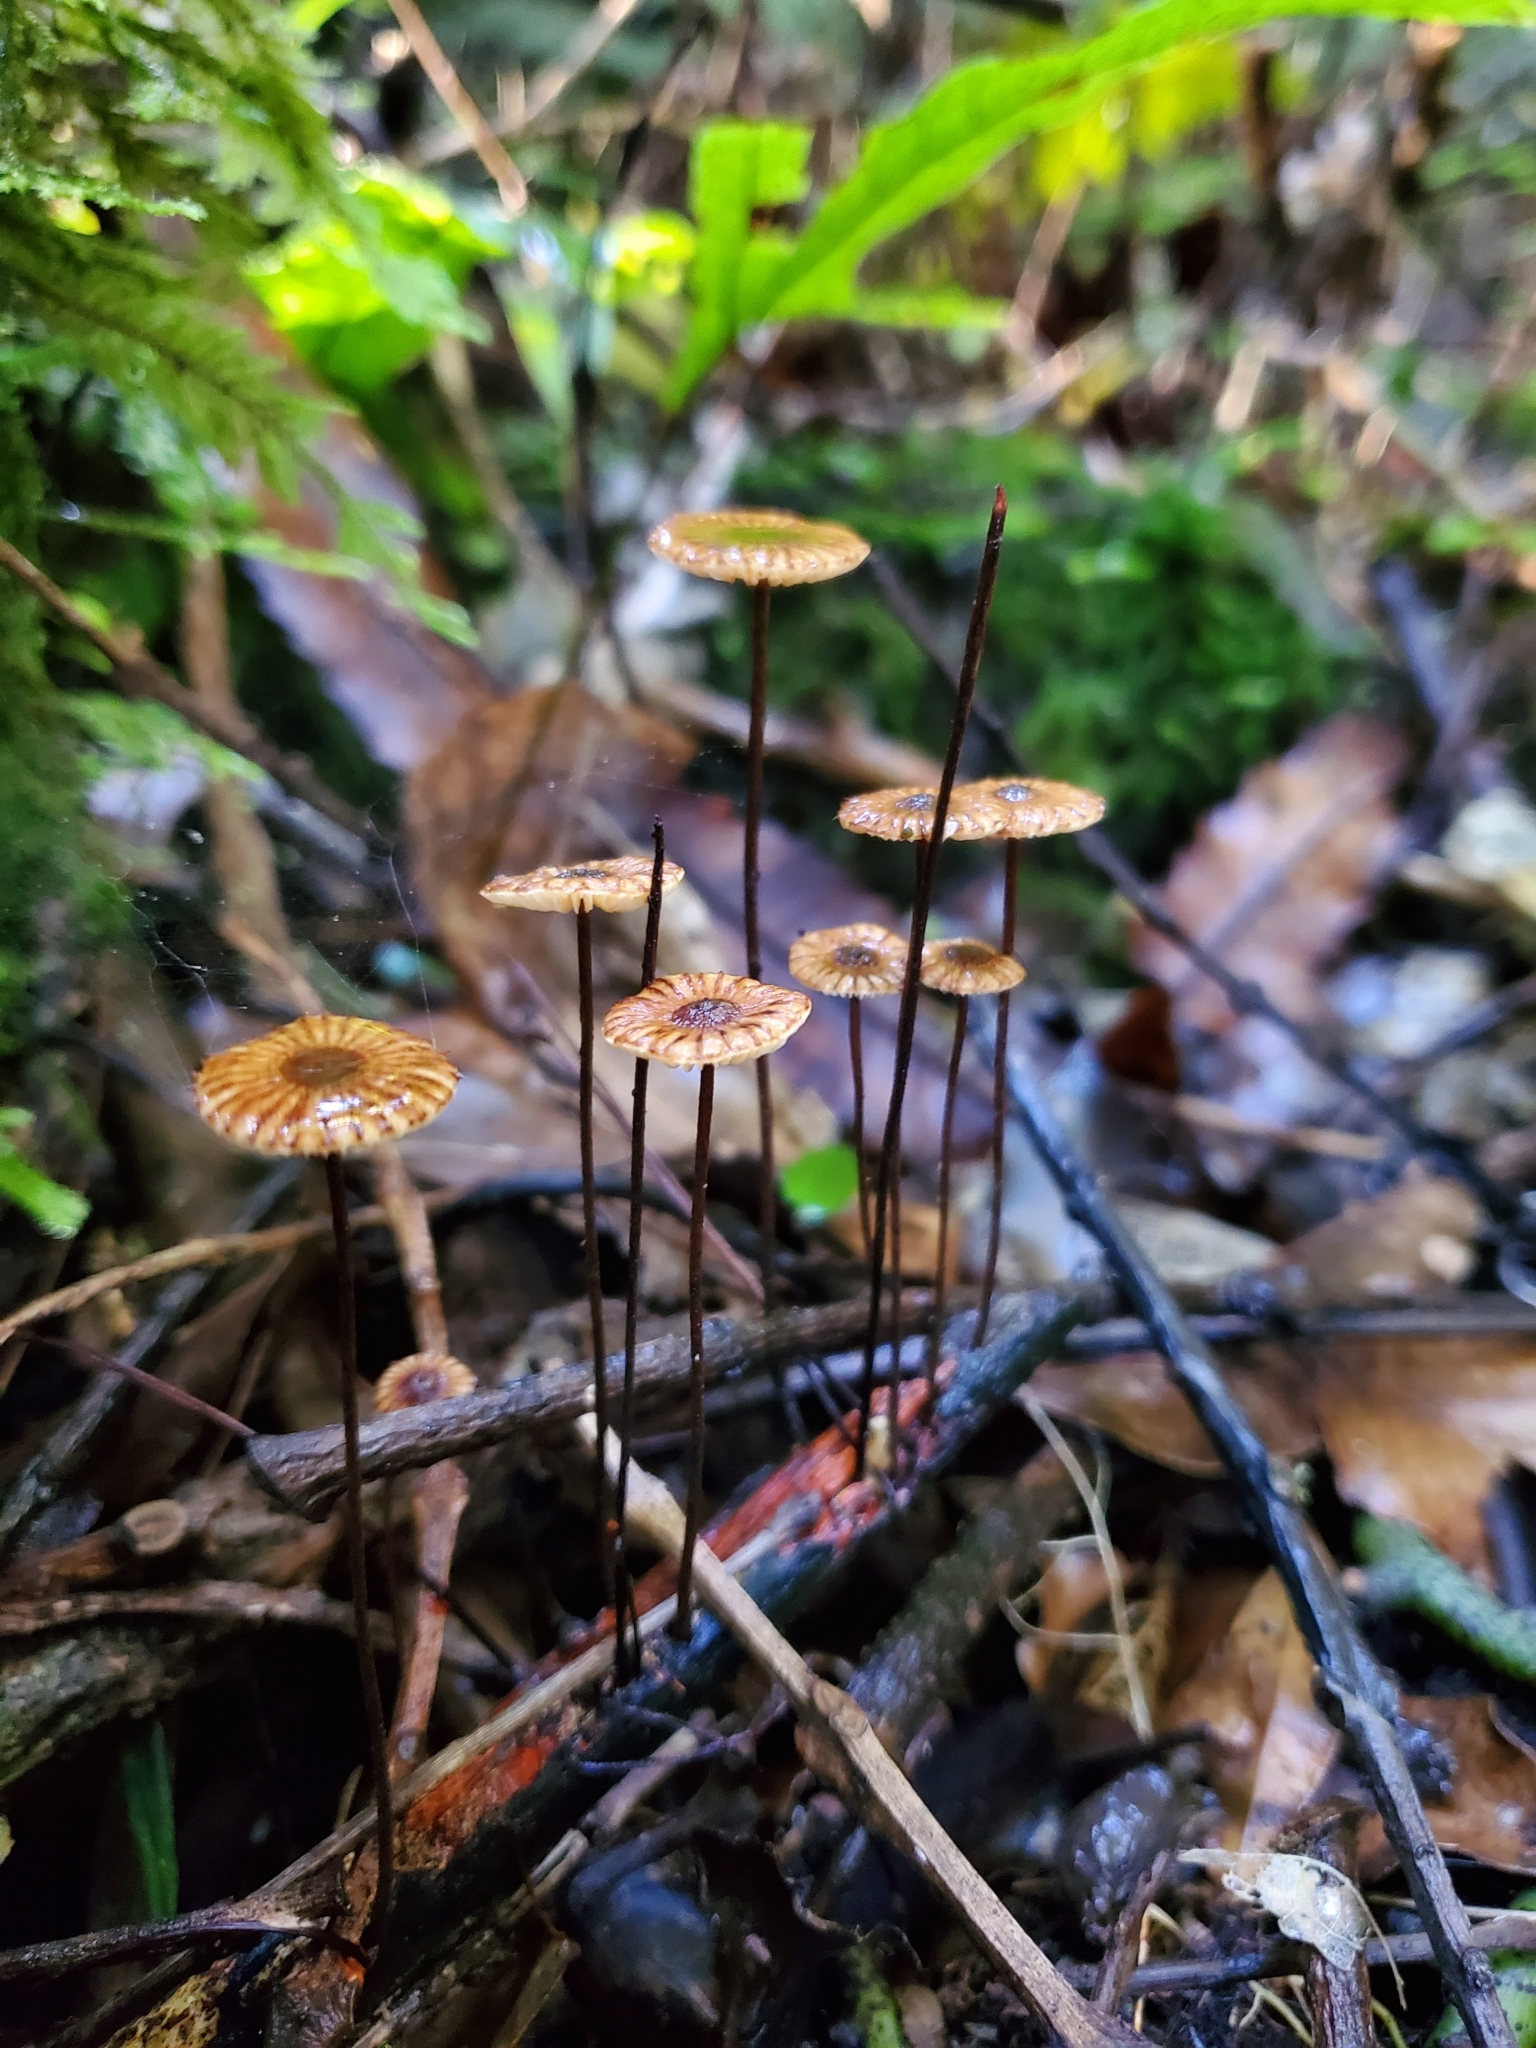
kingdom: Fungi
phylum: Basidiomycota
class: Agaricomycetes
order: Agaricales
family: Marasmiaceae
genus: Crinipellis
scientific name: Crinipellis procera
